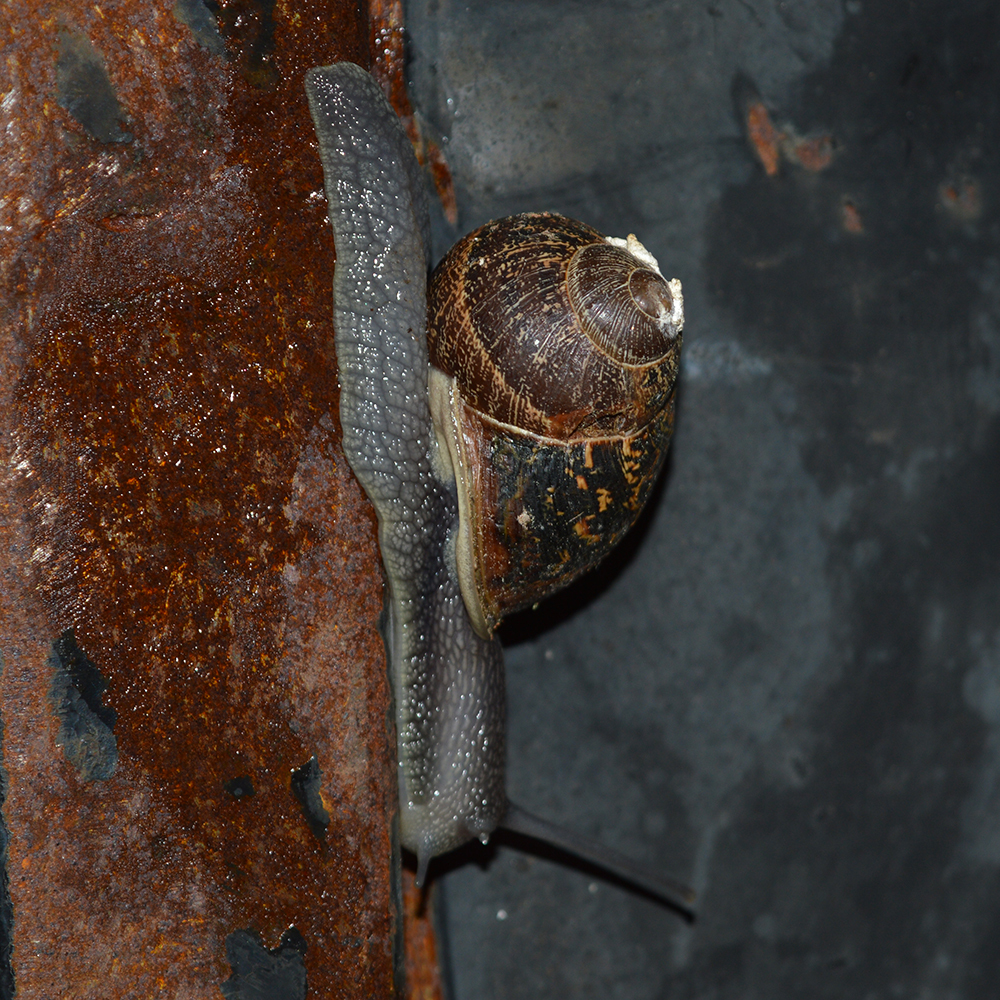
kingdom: Animalia
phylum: Mollusca
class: Gastropoda
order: Stylommatophora
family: Helicidae
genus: Cornu
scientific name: Cornu aspersum
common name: Brown garden snail
